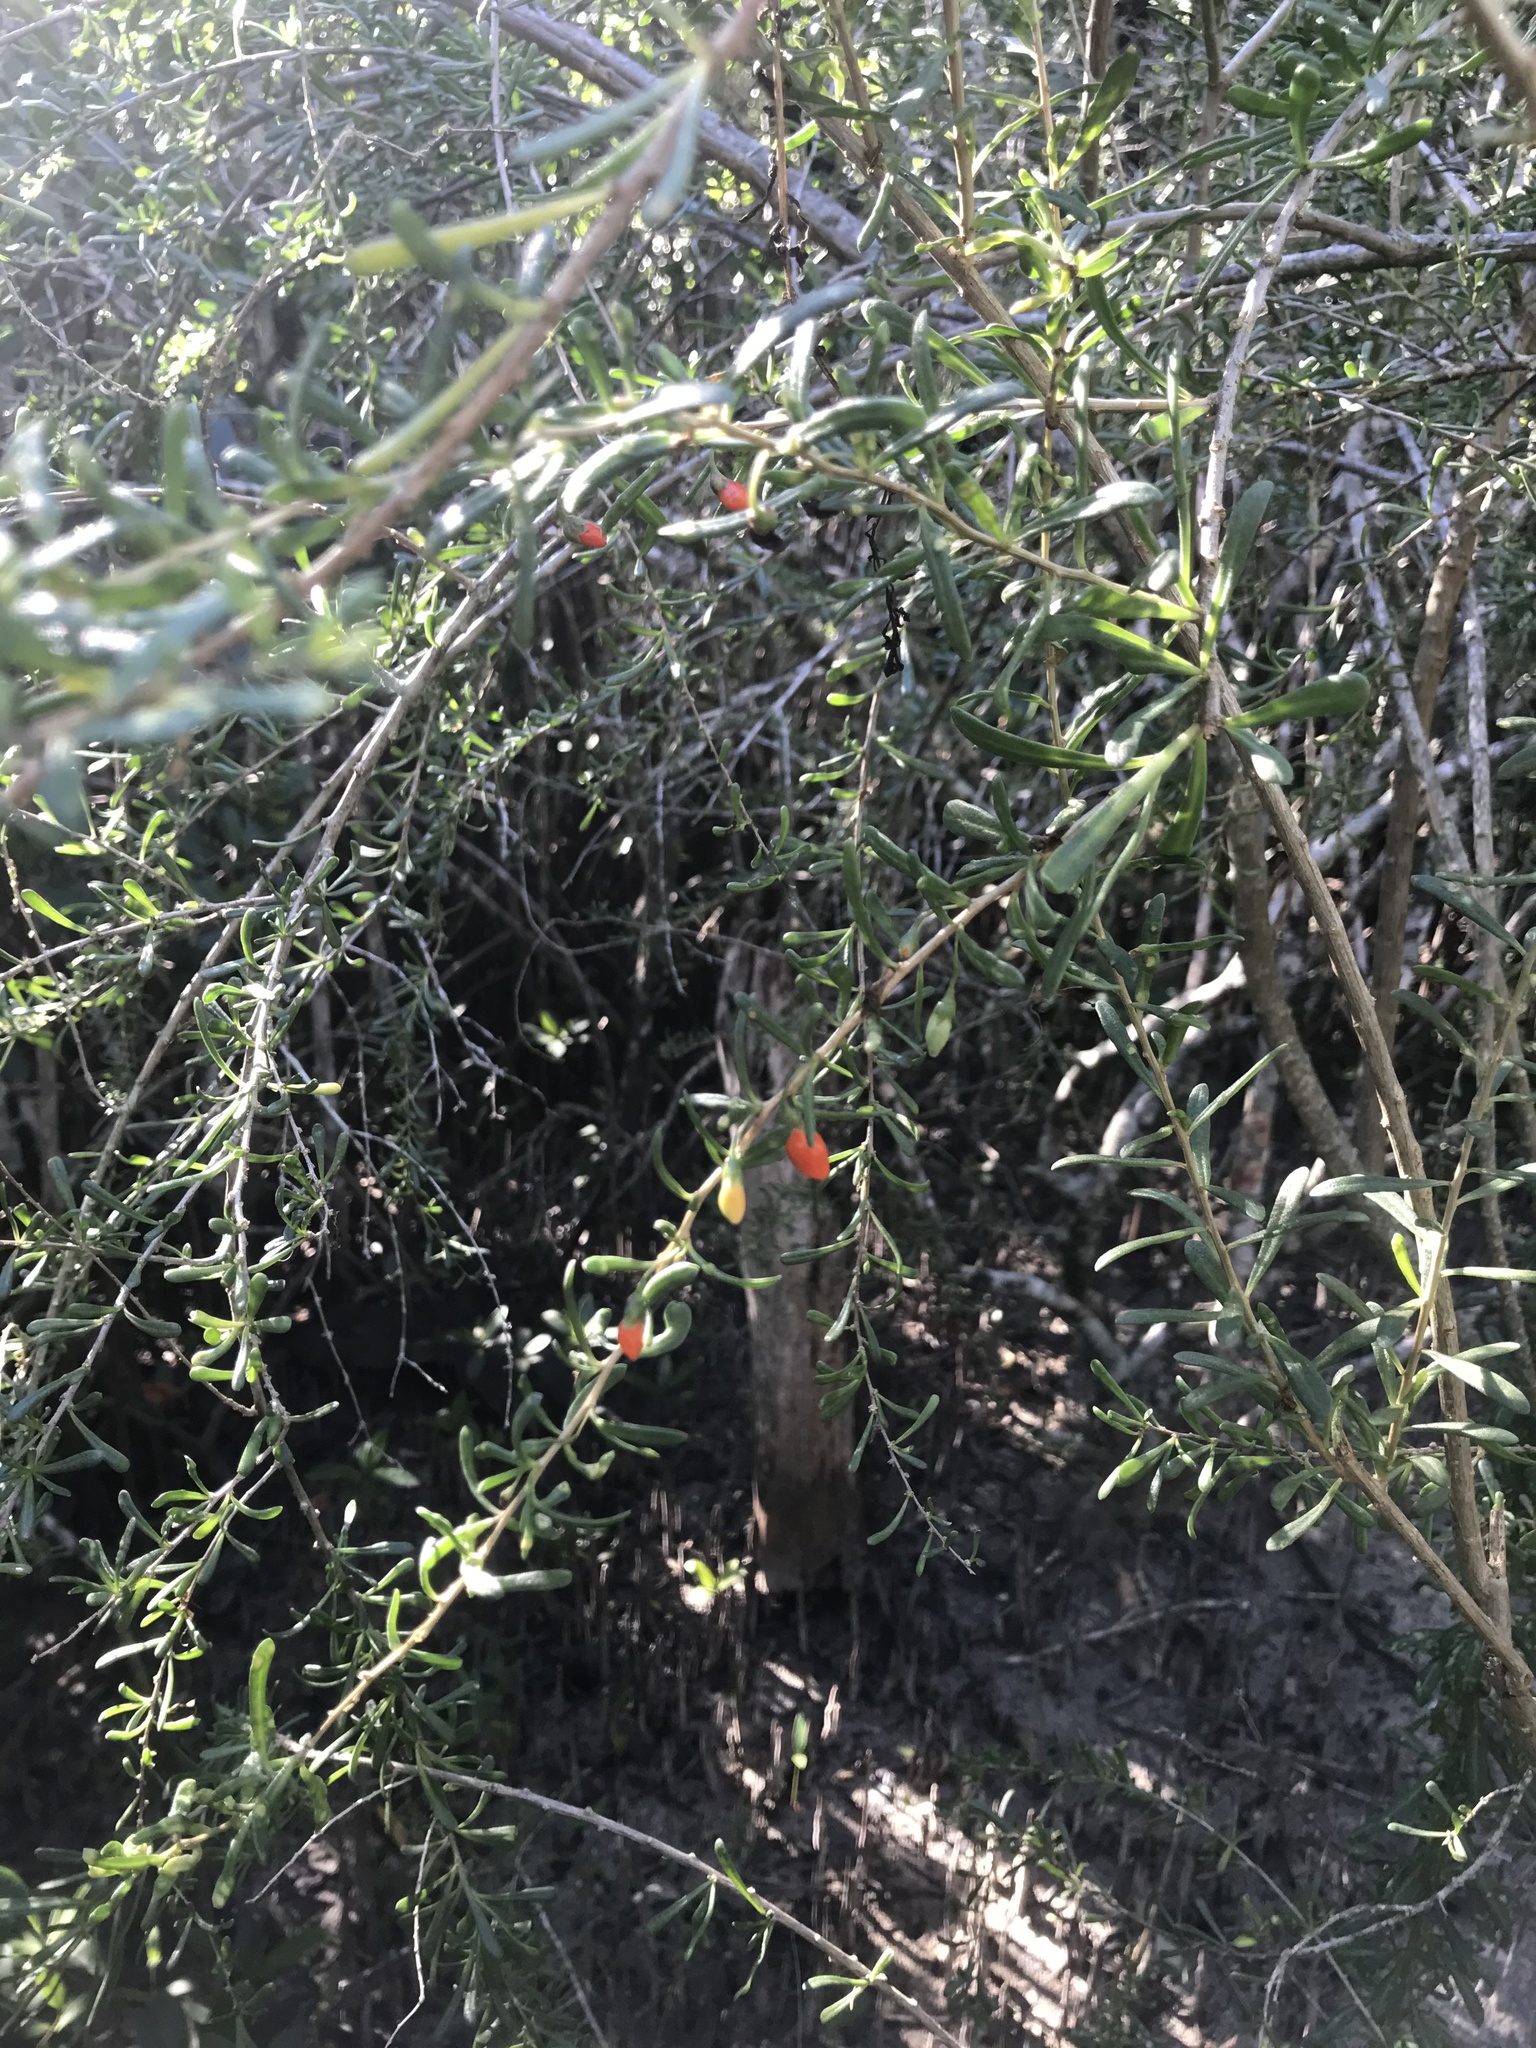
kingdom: Plantae
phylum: Tracheophyta
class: Magnoliopsida
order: Solanales
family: Solanaceae
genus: Lycium
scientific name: Lycium carolinianum
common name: Christmasberry
